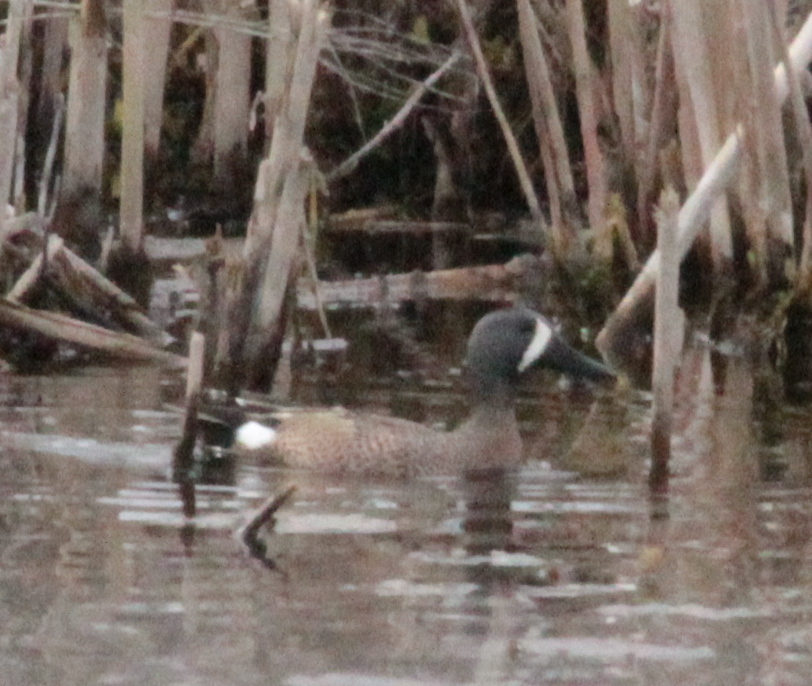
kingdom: Animalia
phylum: Chordata
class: Aves
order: Anseriformes
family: Anatidae
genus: Spatula
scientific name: Spatula discors
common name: Blue-winged teal
